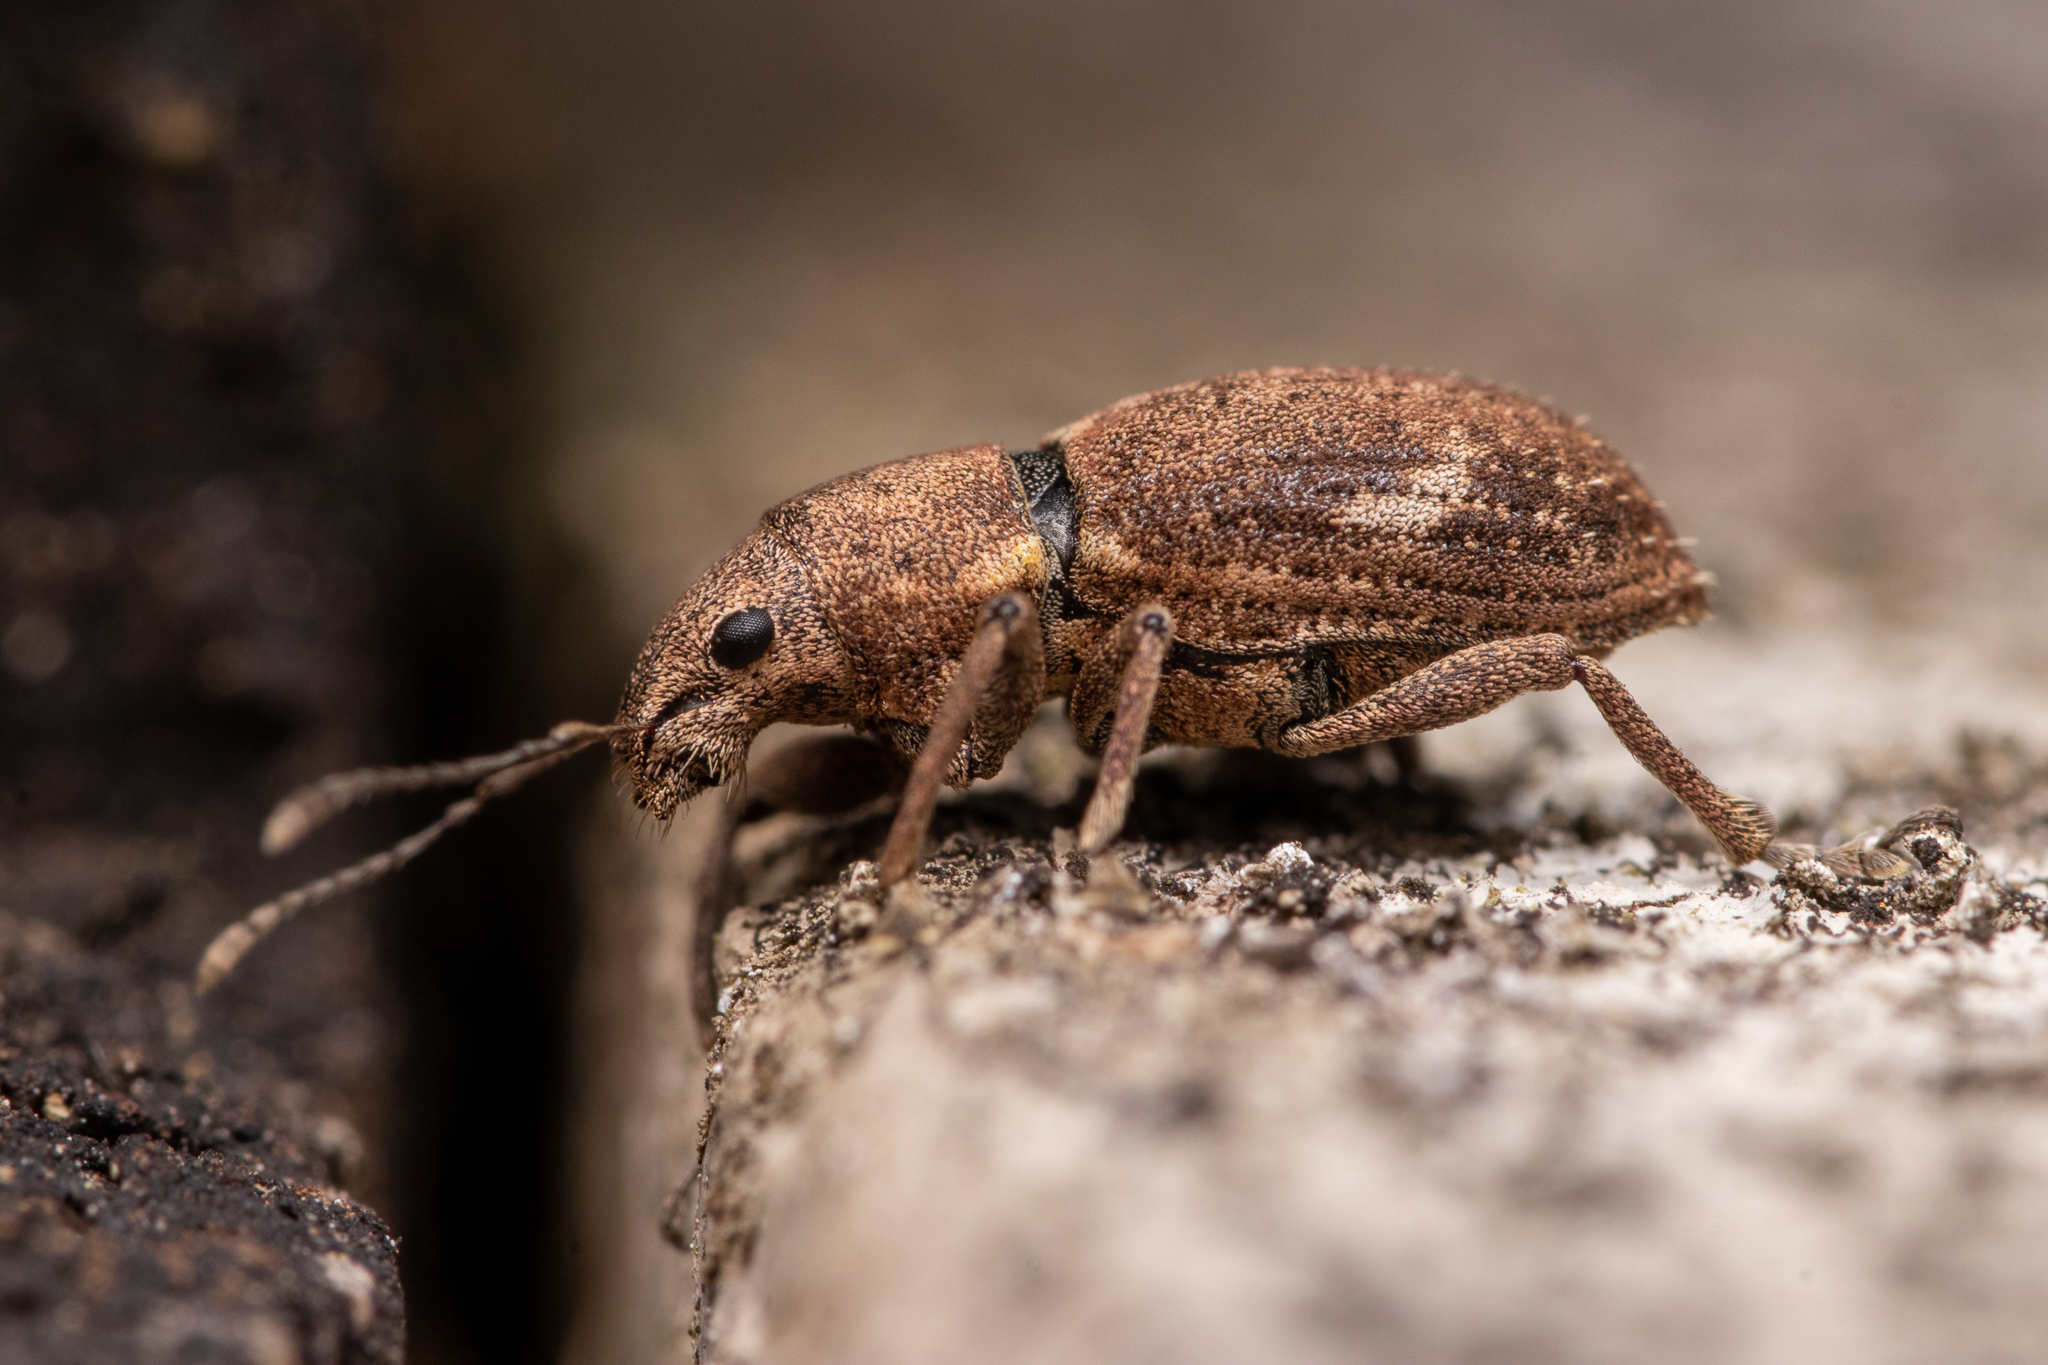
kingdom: Animalia
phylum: Arthropoda
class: Insecta
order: Coleoptera
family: Curculionidae
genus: Naupactus
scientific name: Naupactus cervinus
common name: Fuller rose beetle
